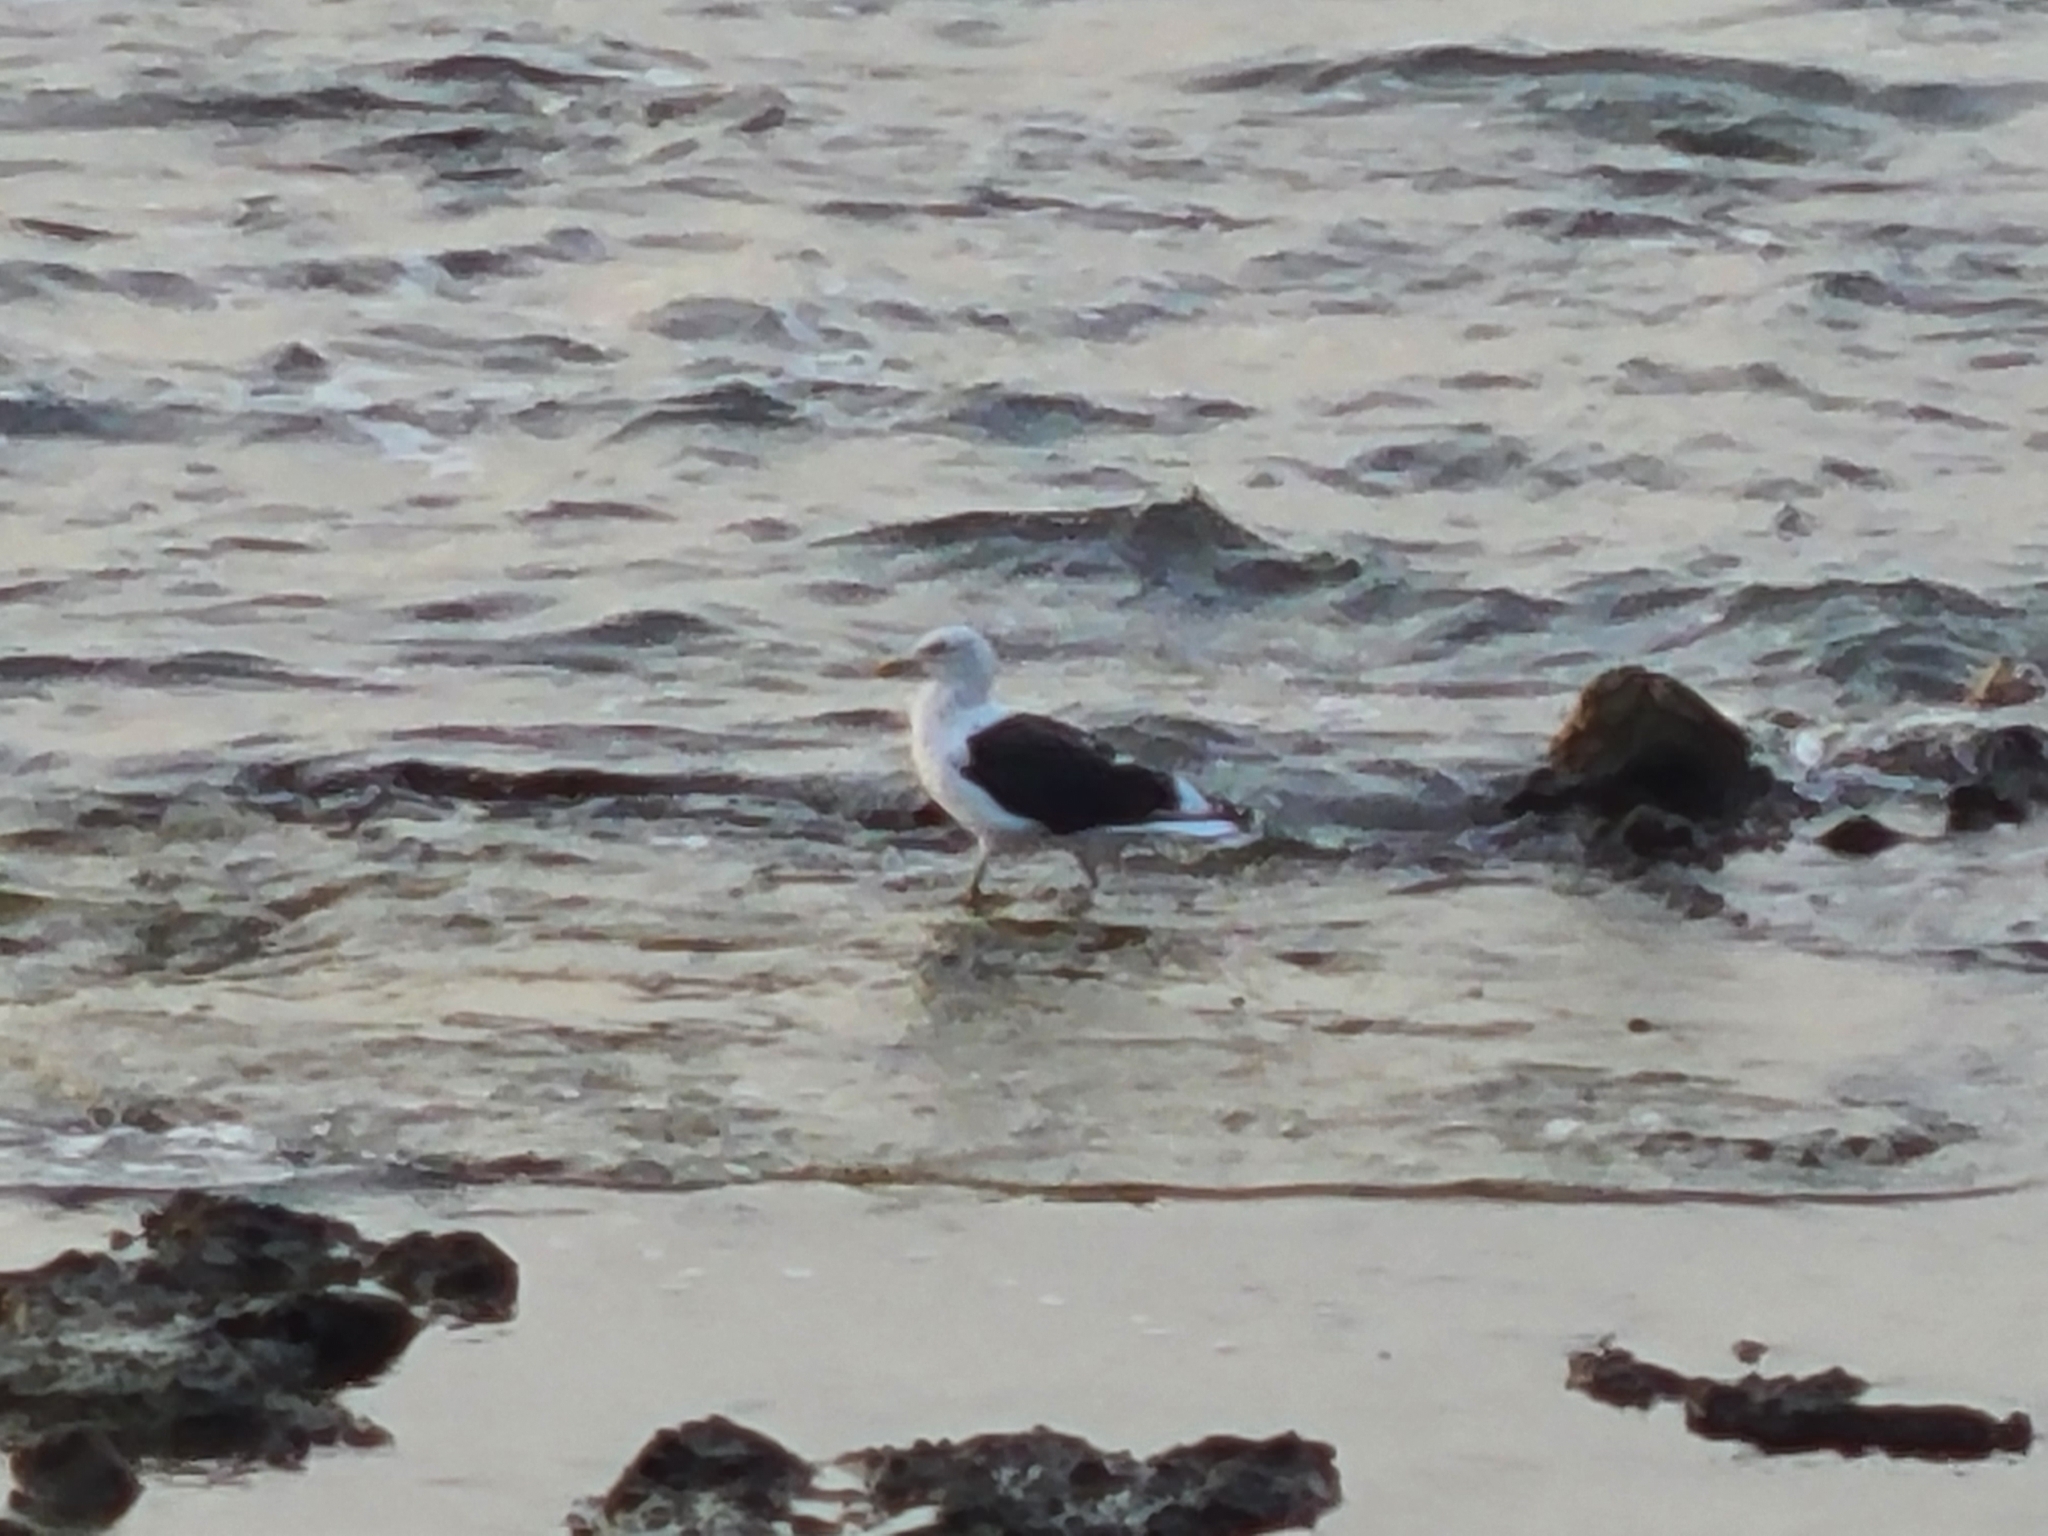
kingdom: Animalia
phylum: Chordata
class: Aves
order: Charadriiformes
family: Laridae
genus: Larus
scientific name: Larus dominicanus
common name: Kelp gull
